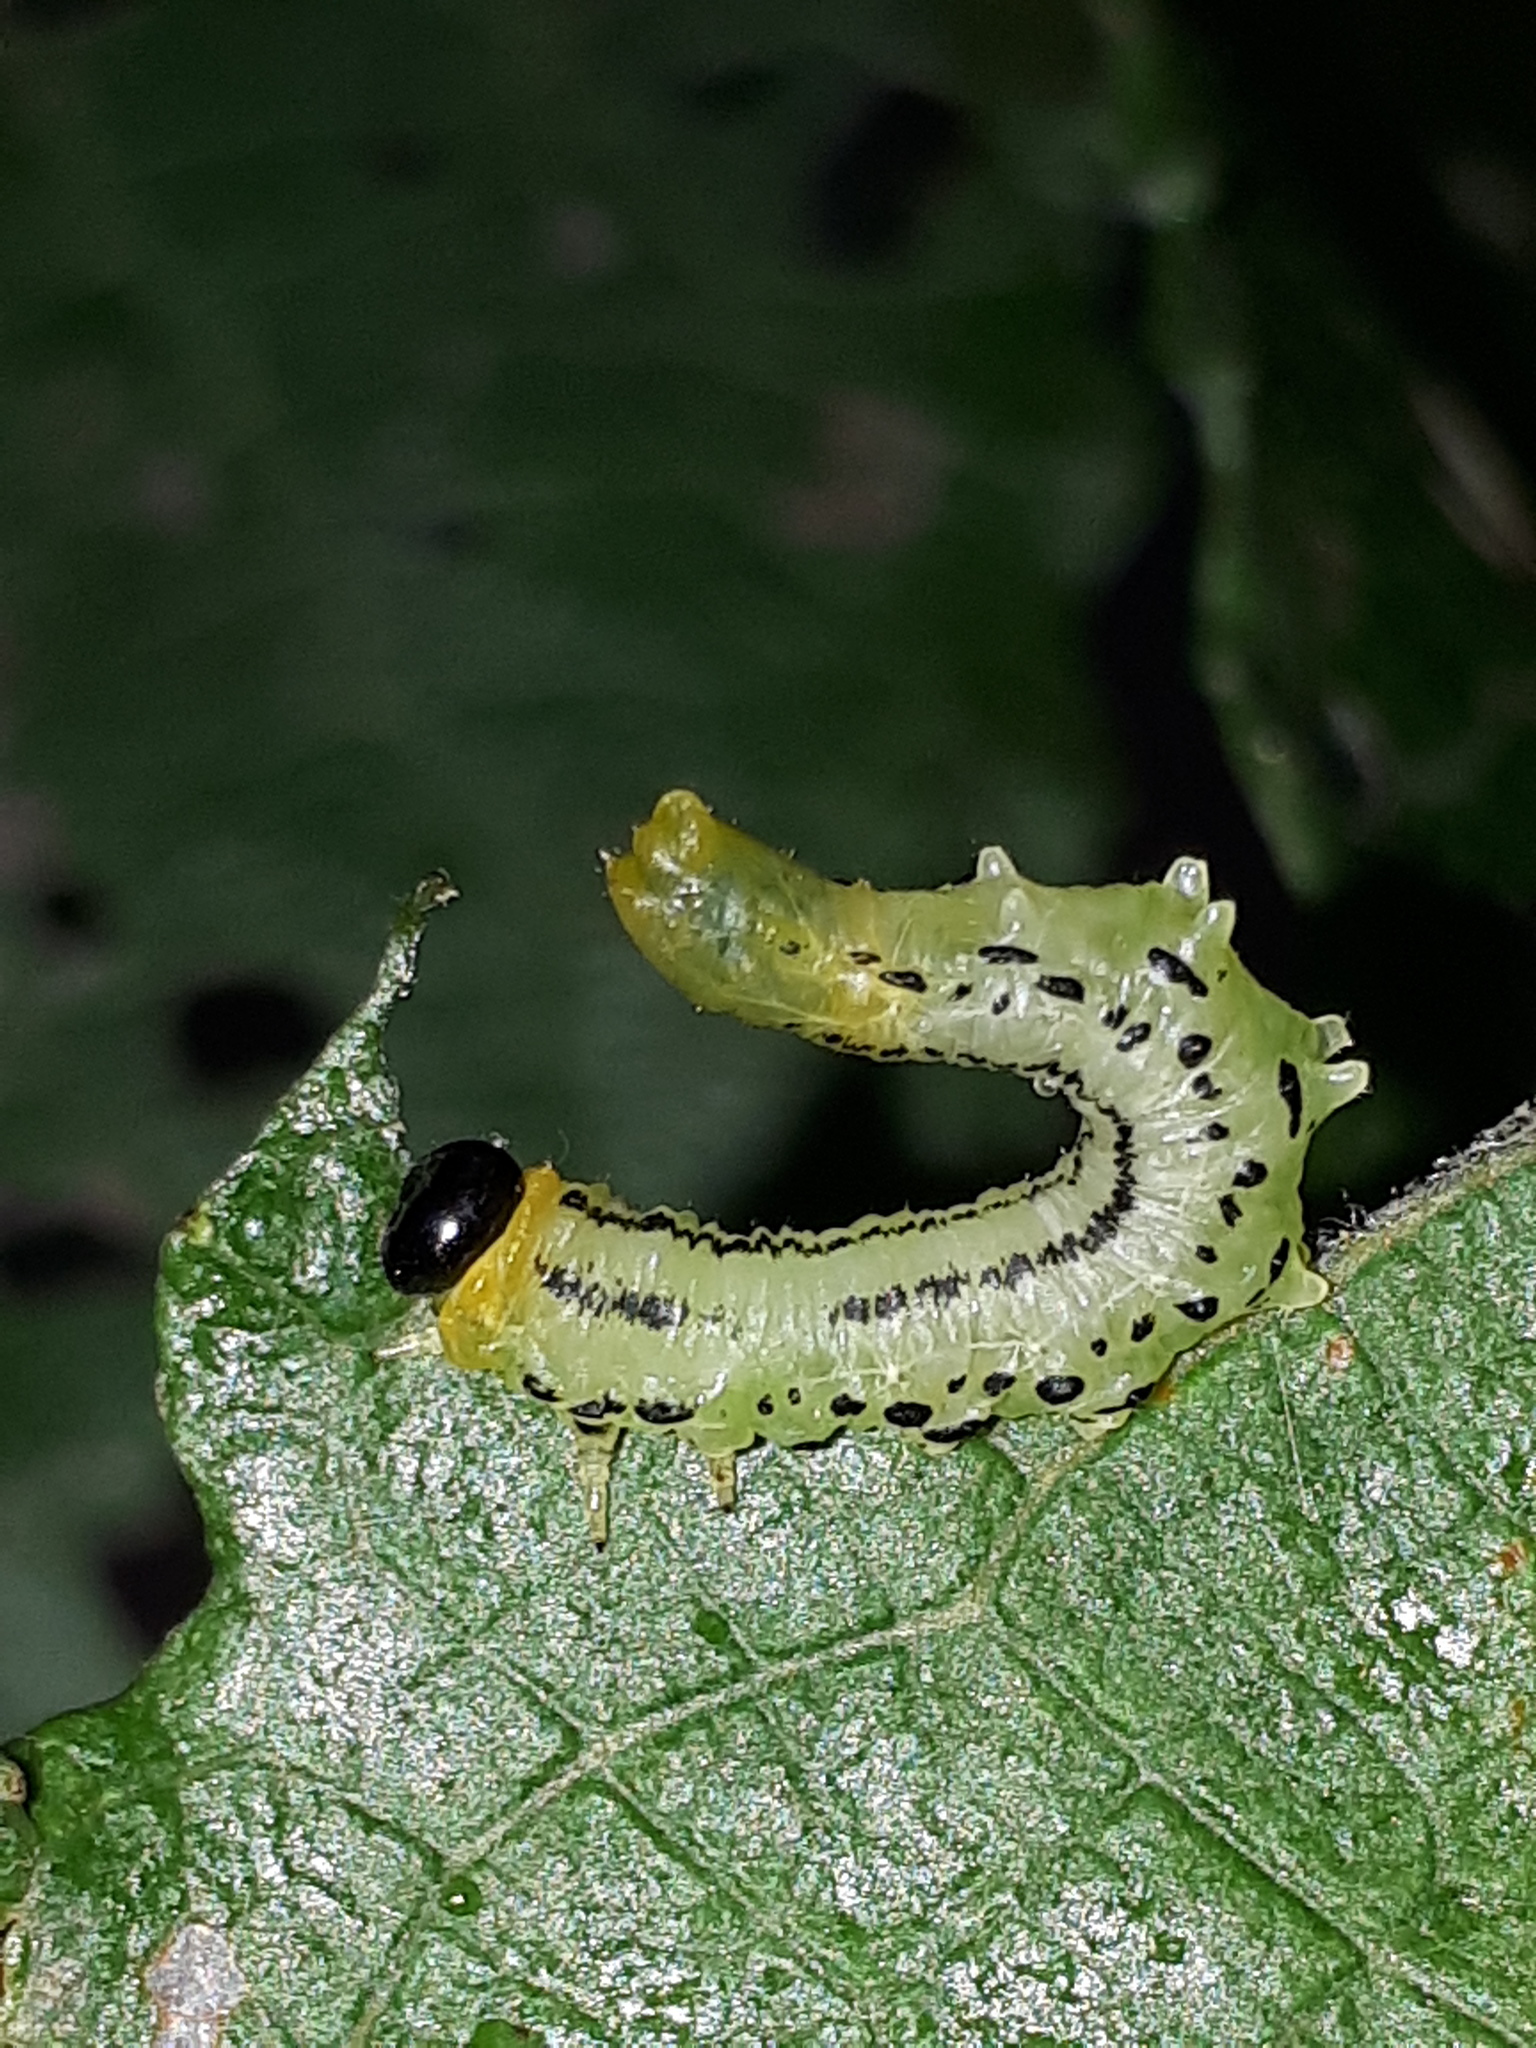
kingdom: Animalia
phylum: Arthropoda
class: Insecta
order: Hymenoptera
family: Tenthredinidae
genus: Nematus
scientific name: Nematus pavidus
